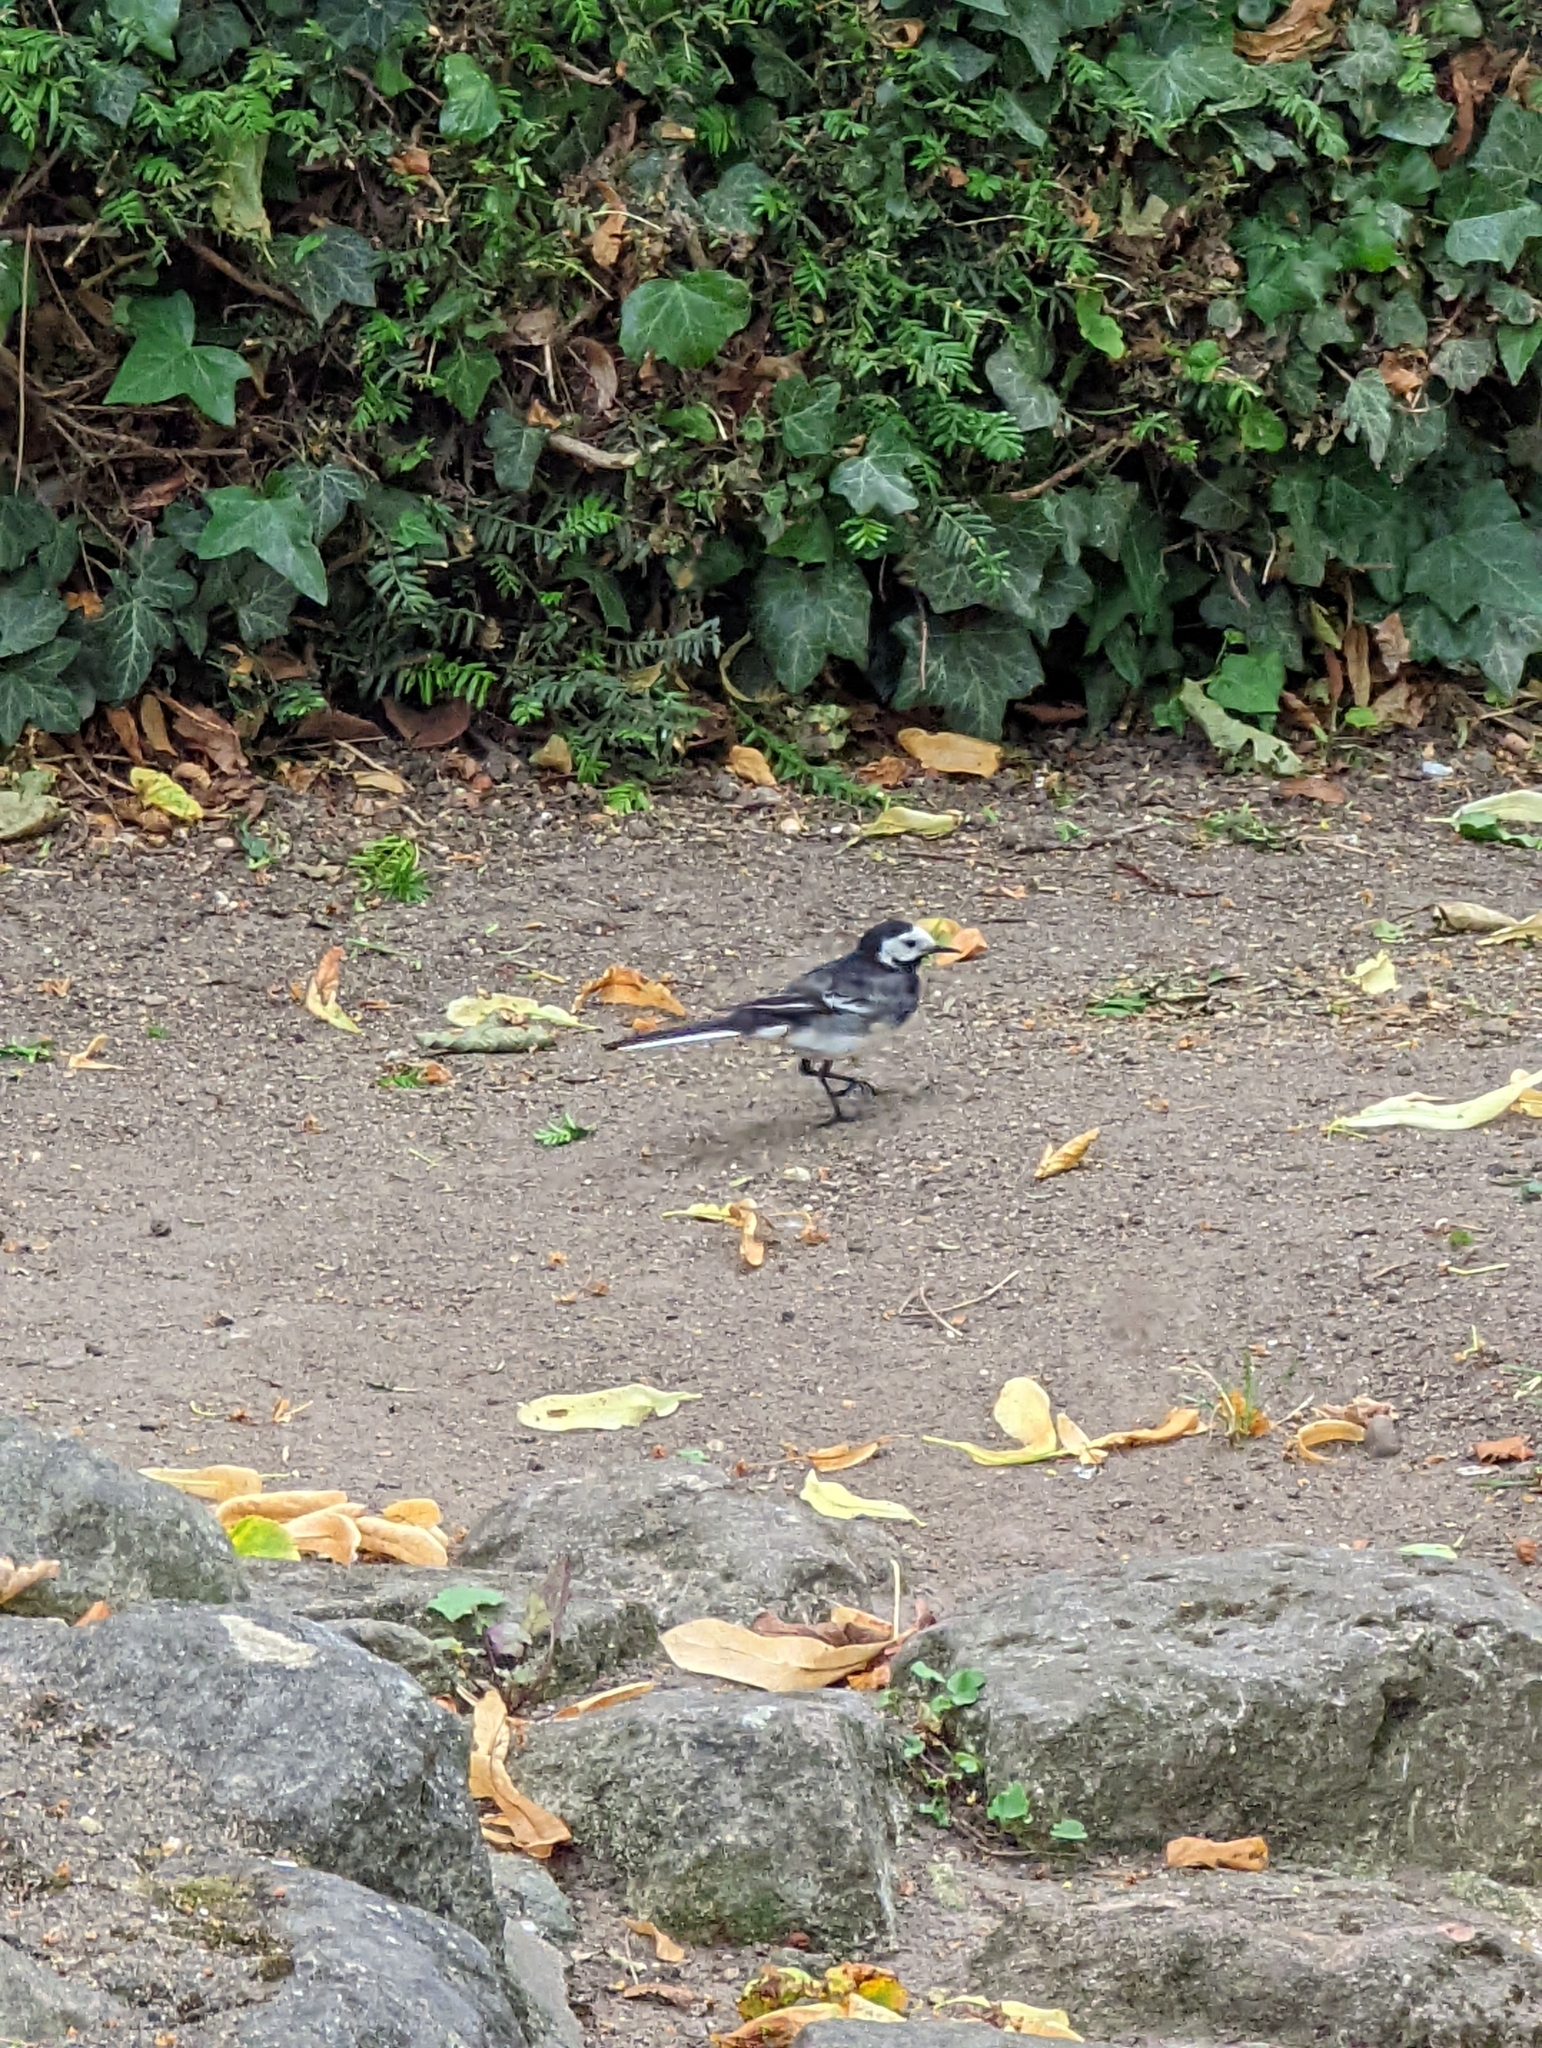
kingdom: Animalia
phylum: Chordata
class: Aves
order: Passeriformes
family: Motacillidae
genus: Motacilla
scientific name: Motacilla alba
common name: White wagtail
